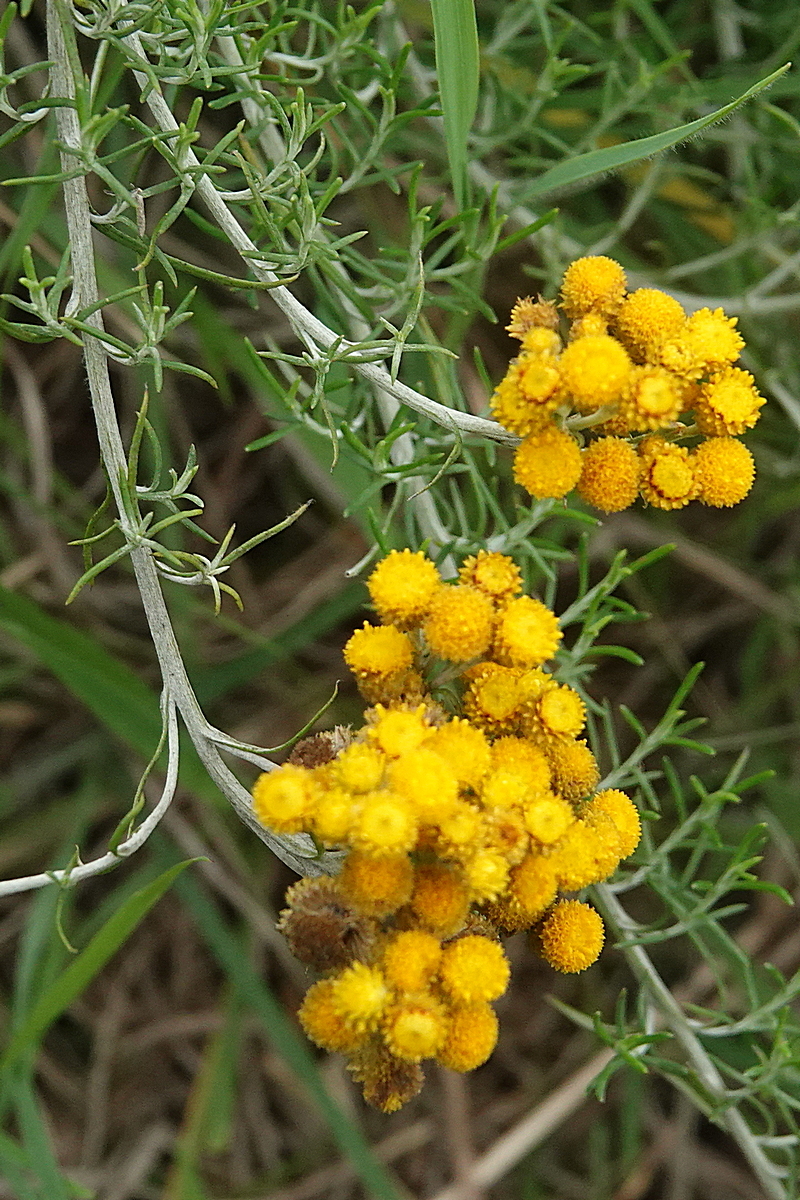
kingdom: Plantae
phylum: Tracheophyta
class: Magnoliopsida
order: Asterales
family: Asteraceae
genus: Chrysocephalum
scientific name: Chrysocephalum semipapposum
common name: Clustered everlasting
